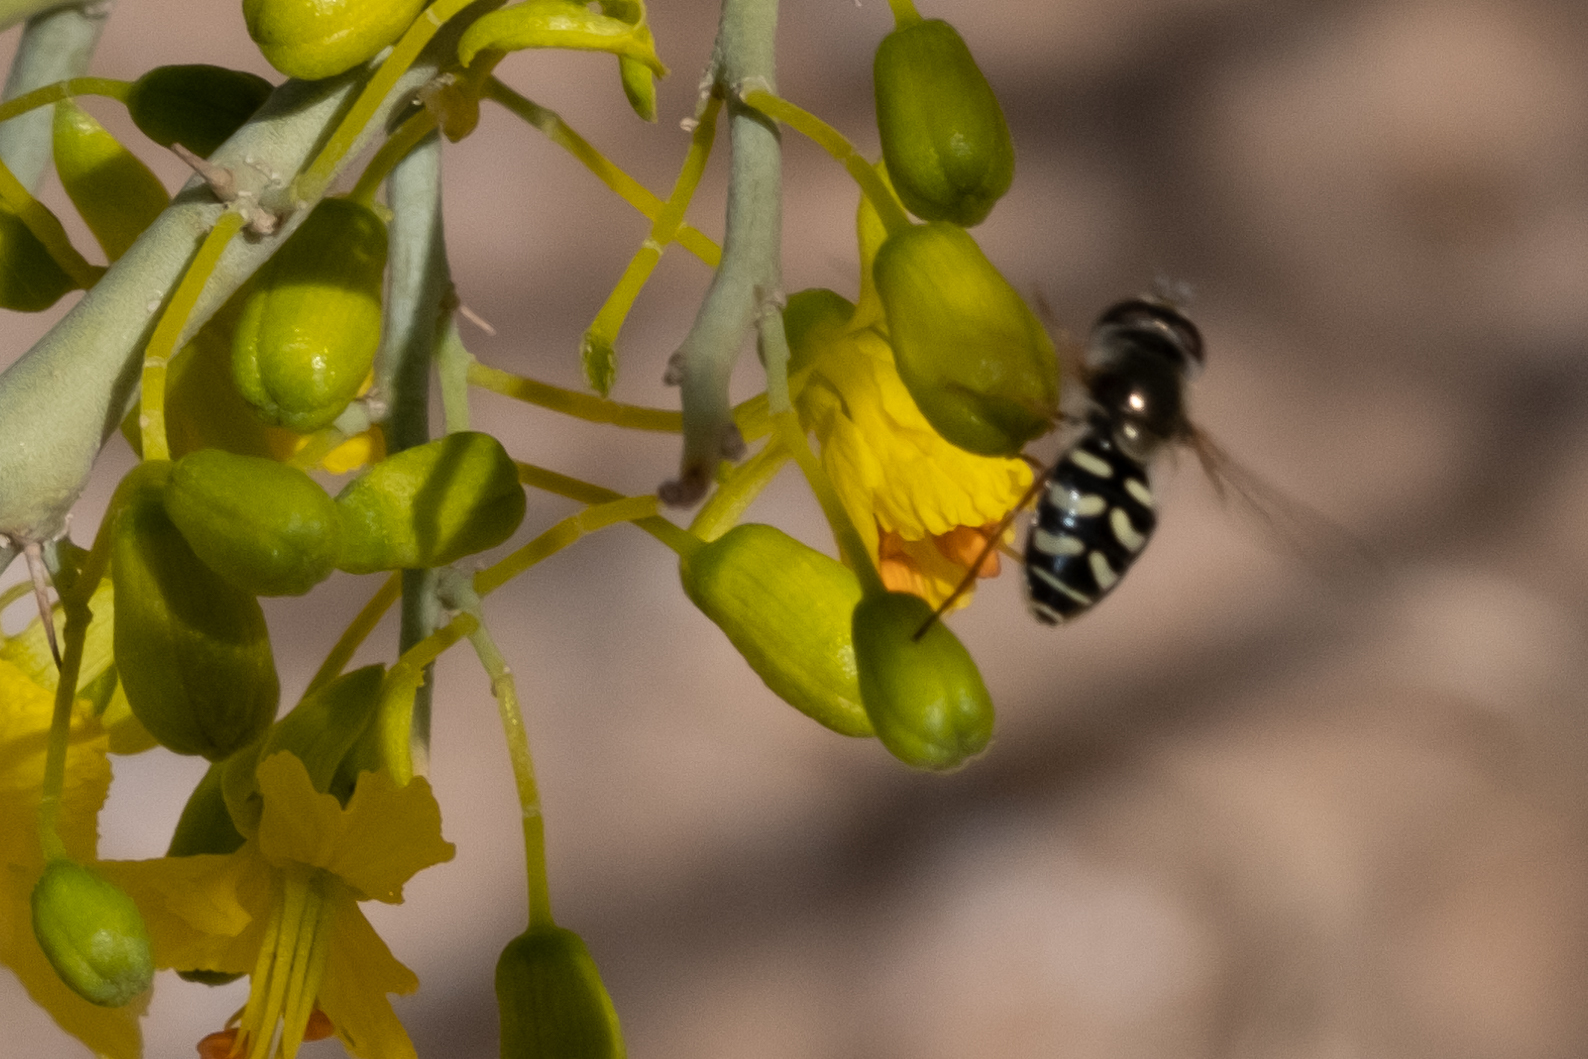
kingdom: Animalia
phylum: Arthropoda
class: Insecta
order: Diptera
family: Syrphidae
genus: Eupeodes
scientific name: Eupeodes volucris
